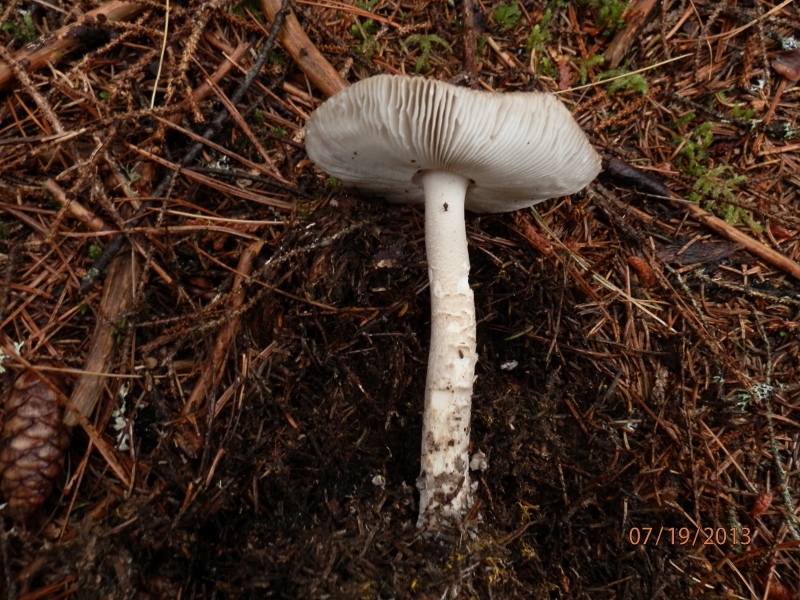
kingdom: Fungi
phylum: Basidiomycota
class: Agaricomycetes
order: Agaricales
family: Amanitaceae
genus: Amanita
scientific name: Amanita rhacopus
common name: Shaggy legged ringless amanita
